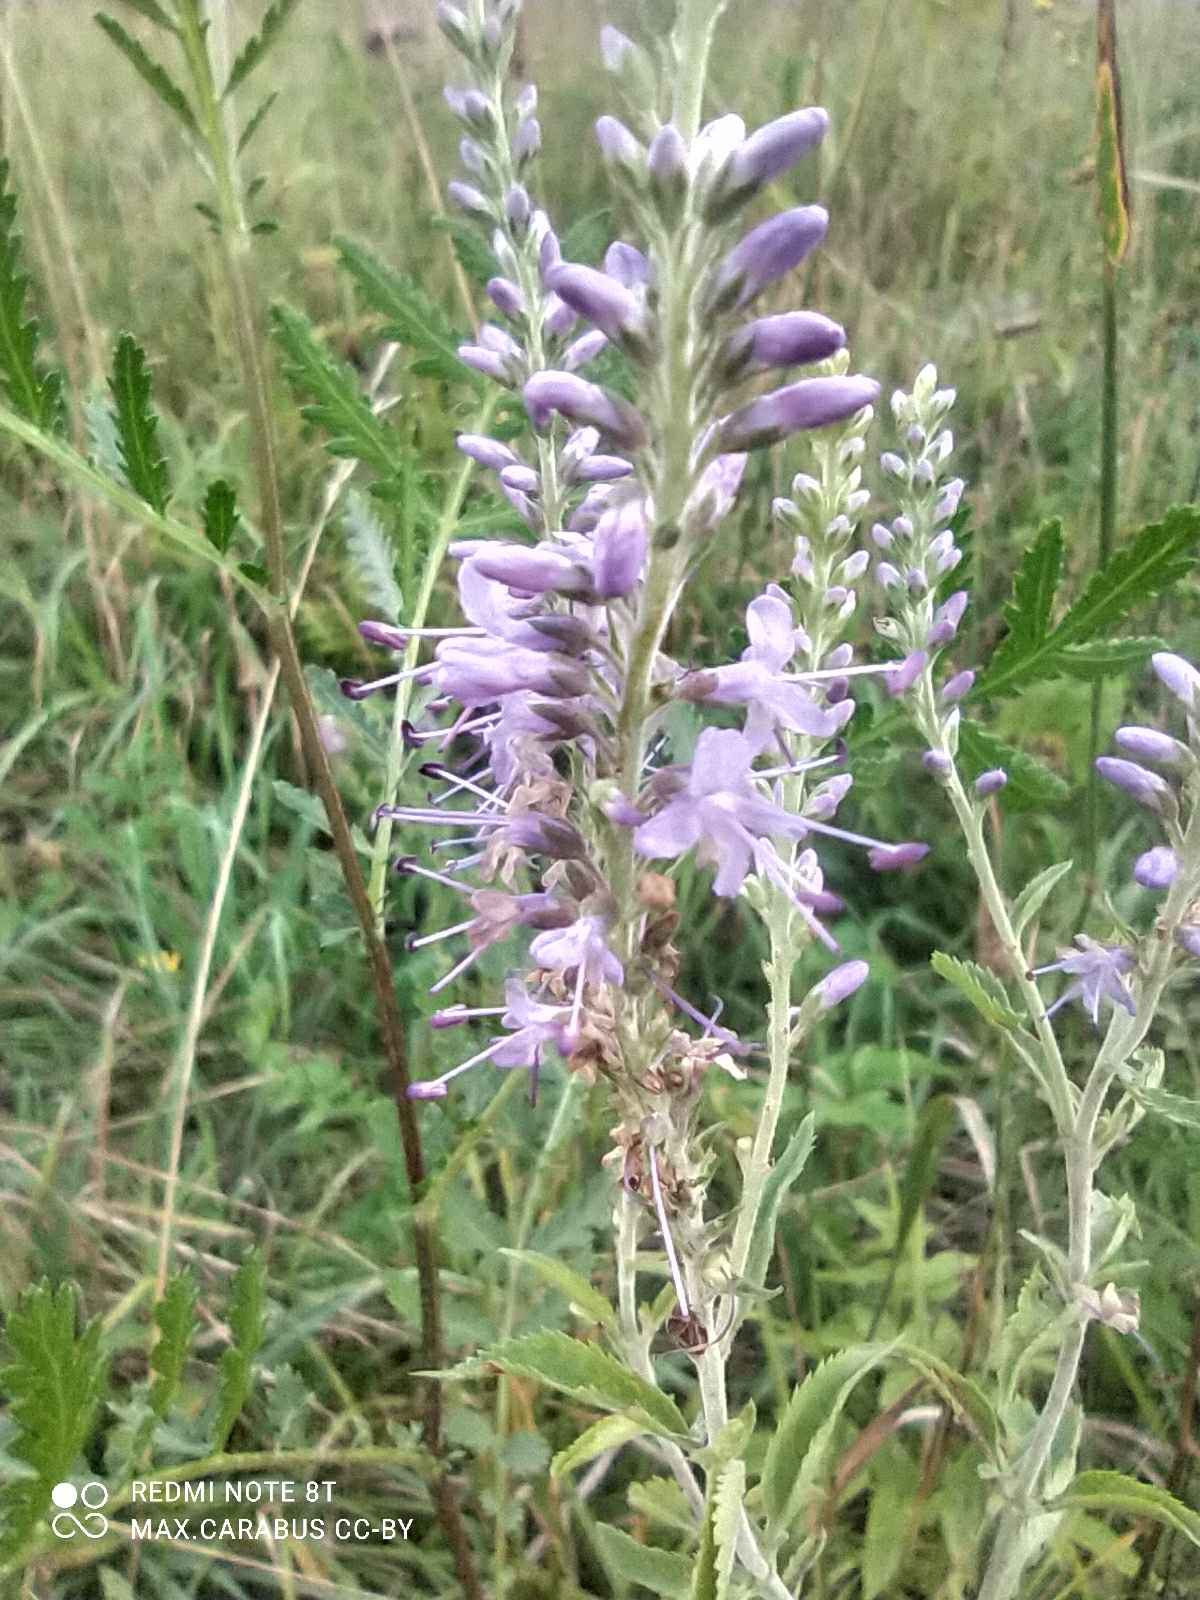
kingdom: Plantae
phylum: Tracheophyta
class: Magnoliopsida
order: Lamiales
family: Plantaginaceae
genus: Veronica
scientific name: Veronica grisea
